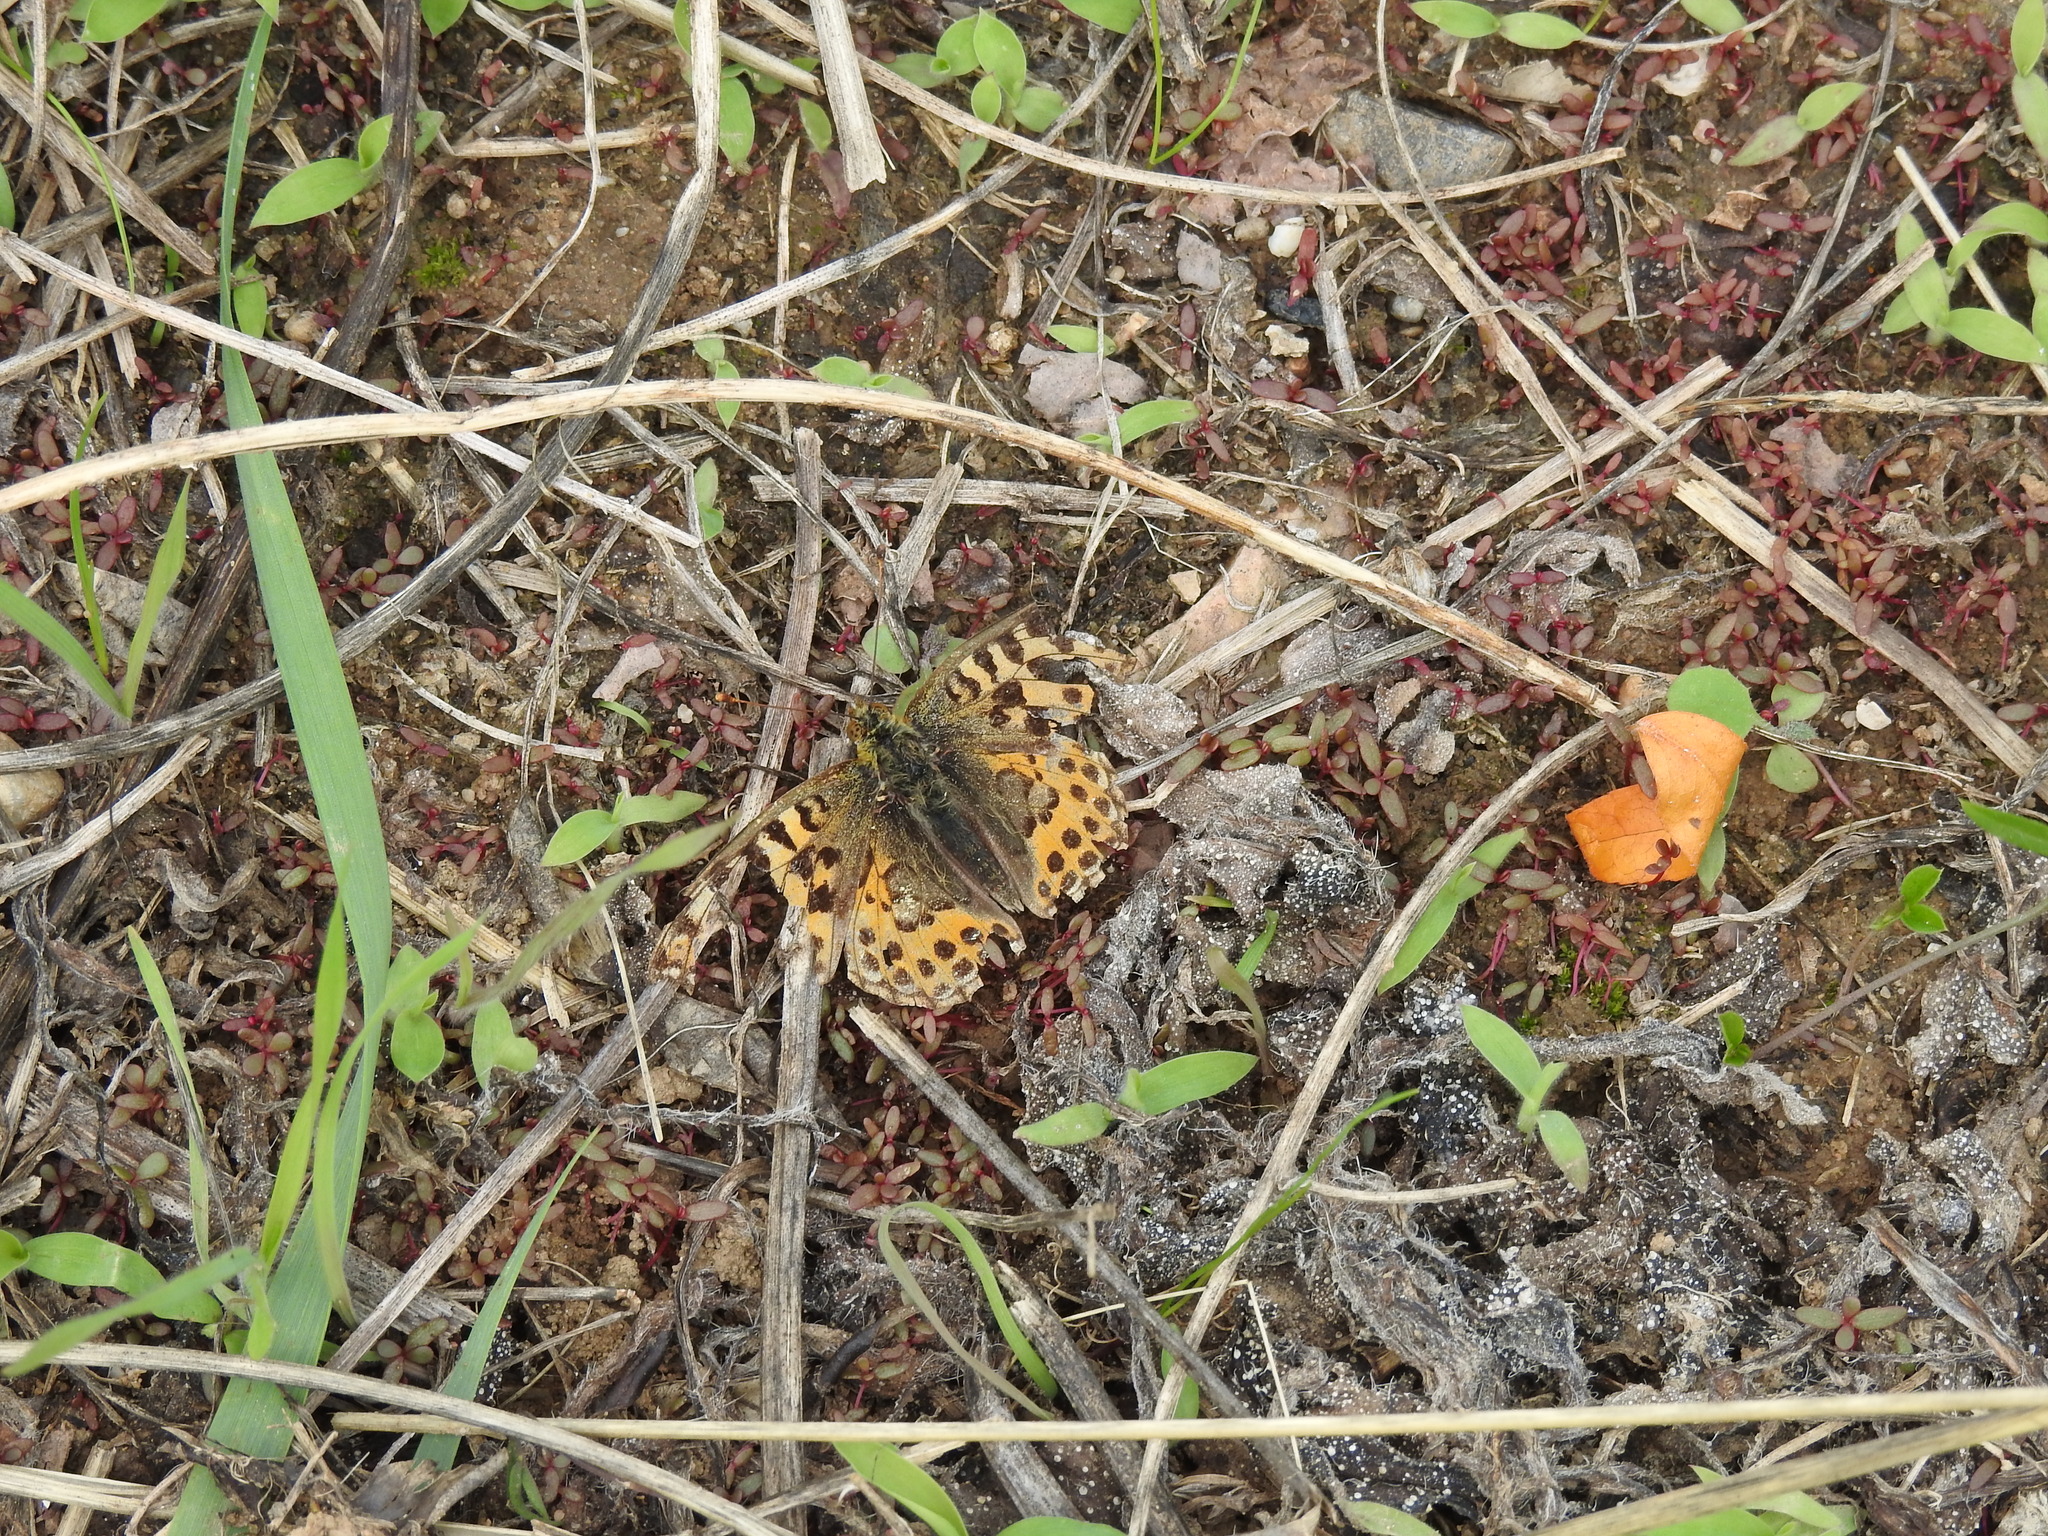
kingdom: Animalia
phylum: Arthropoda
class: Insecta
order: Lepidoptera
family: Nymphalidae
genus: Issoria
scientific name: Issoria lathonia
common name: Queen of spain fritillary
